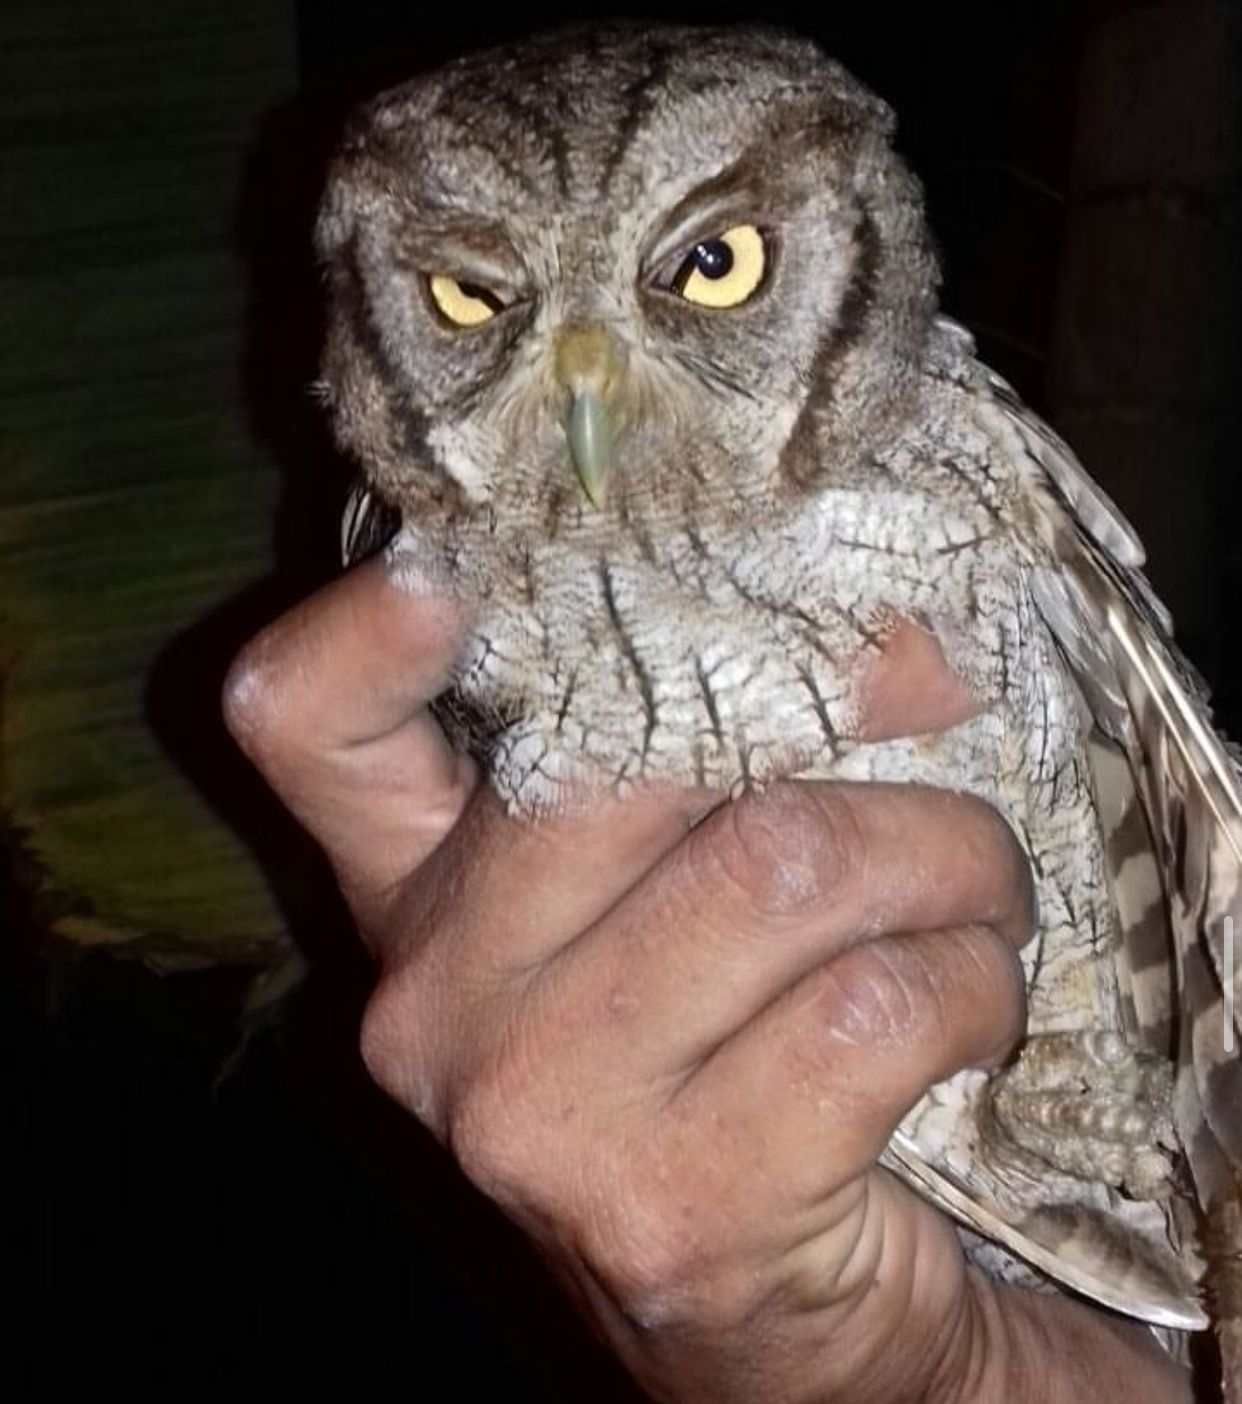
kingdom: Animalia
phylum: Chordata
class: Aves
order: Strigiformes
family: Strigidae
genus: Megascops
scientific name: Megascops choliba
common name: Tropical screech-owl
